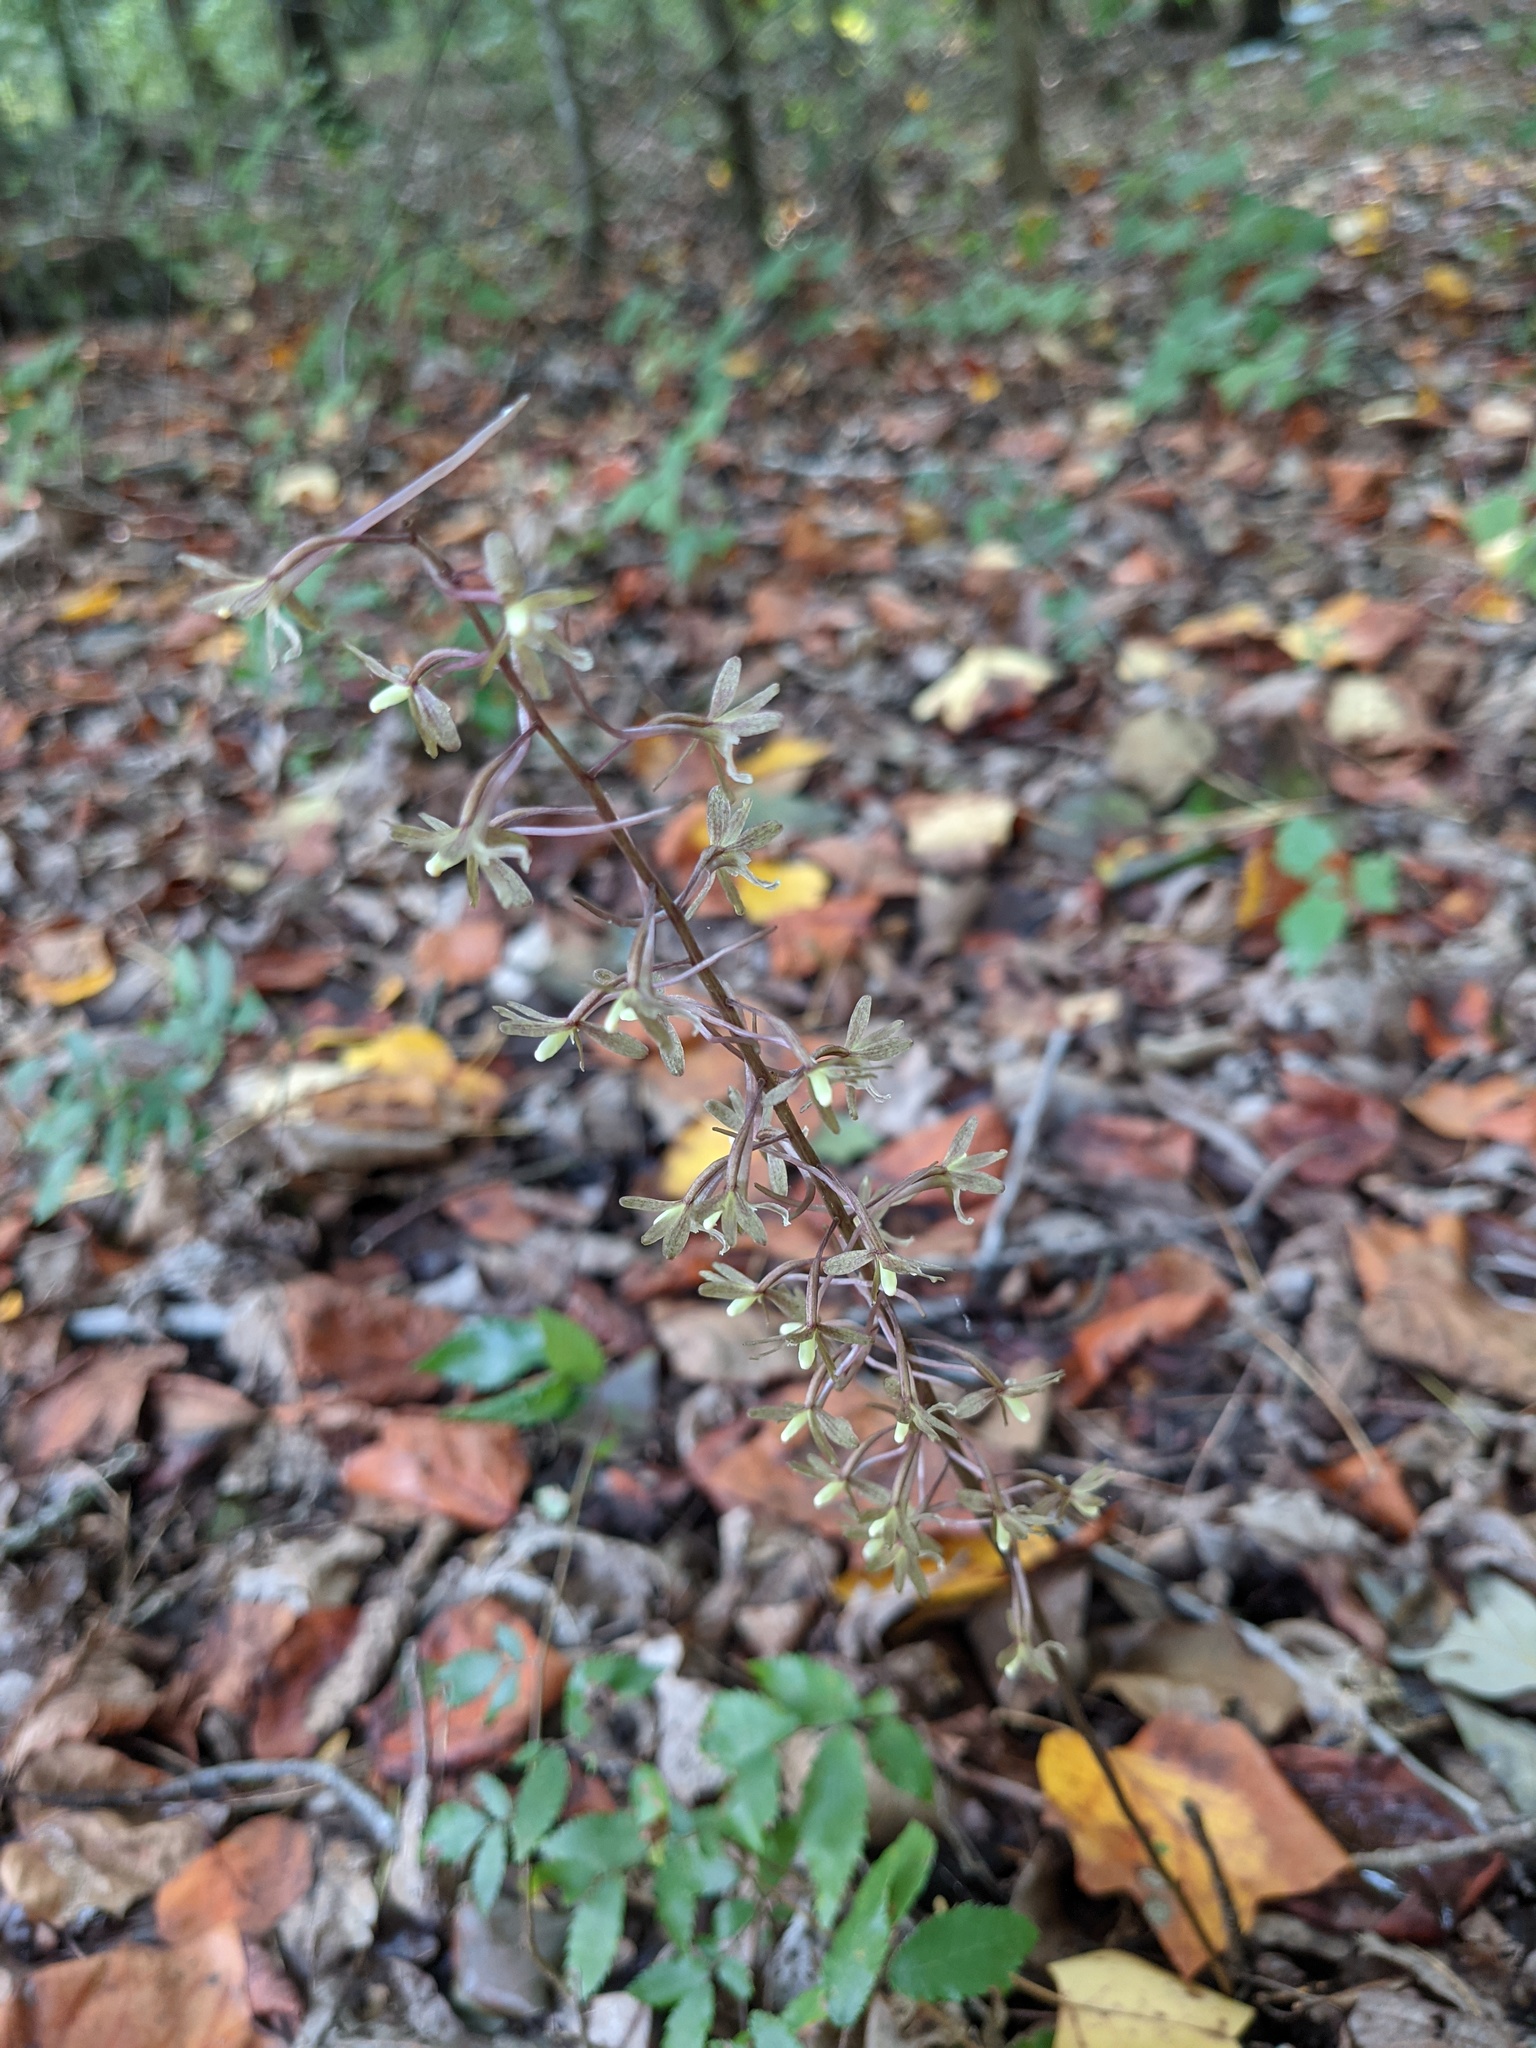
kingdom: Plantae
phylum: Tracheophyta
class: Liliopsida
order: Asparagales
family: Orchidaceae
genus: Tipularia
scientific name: Tipularia discolor
